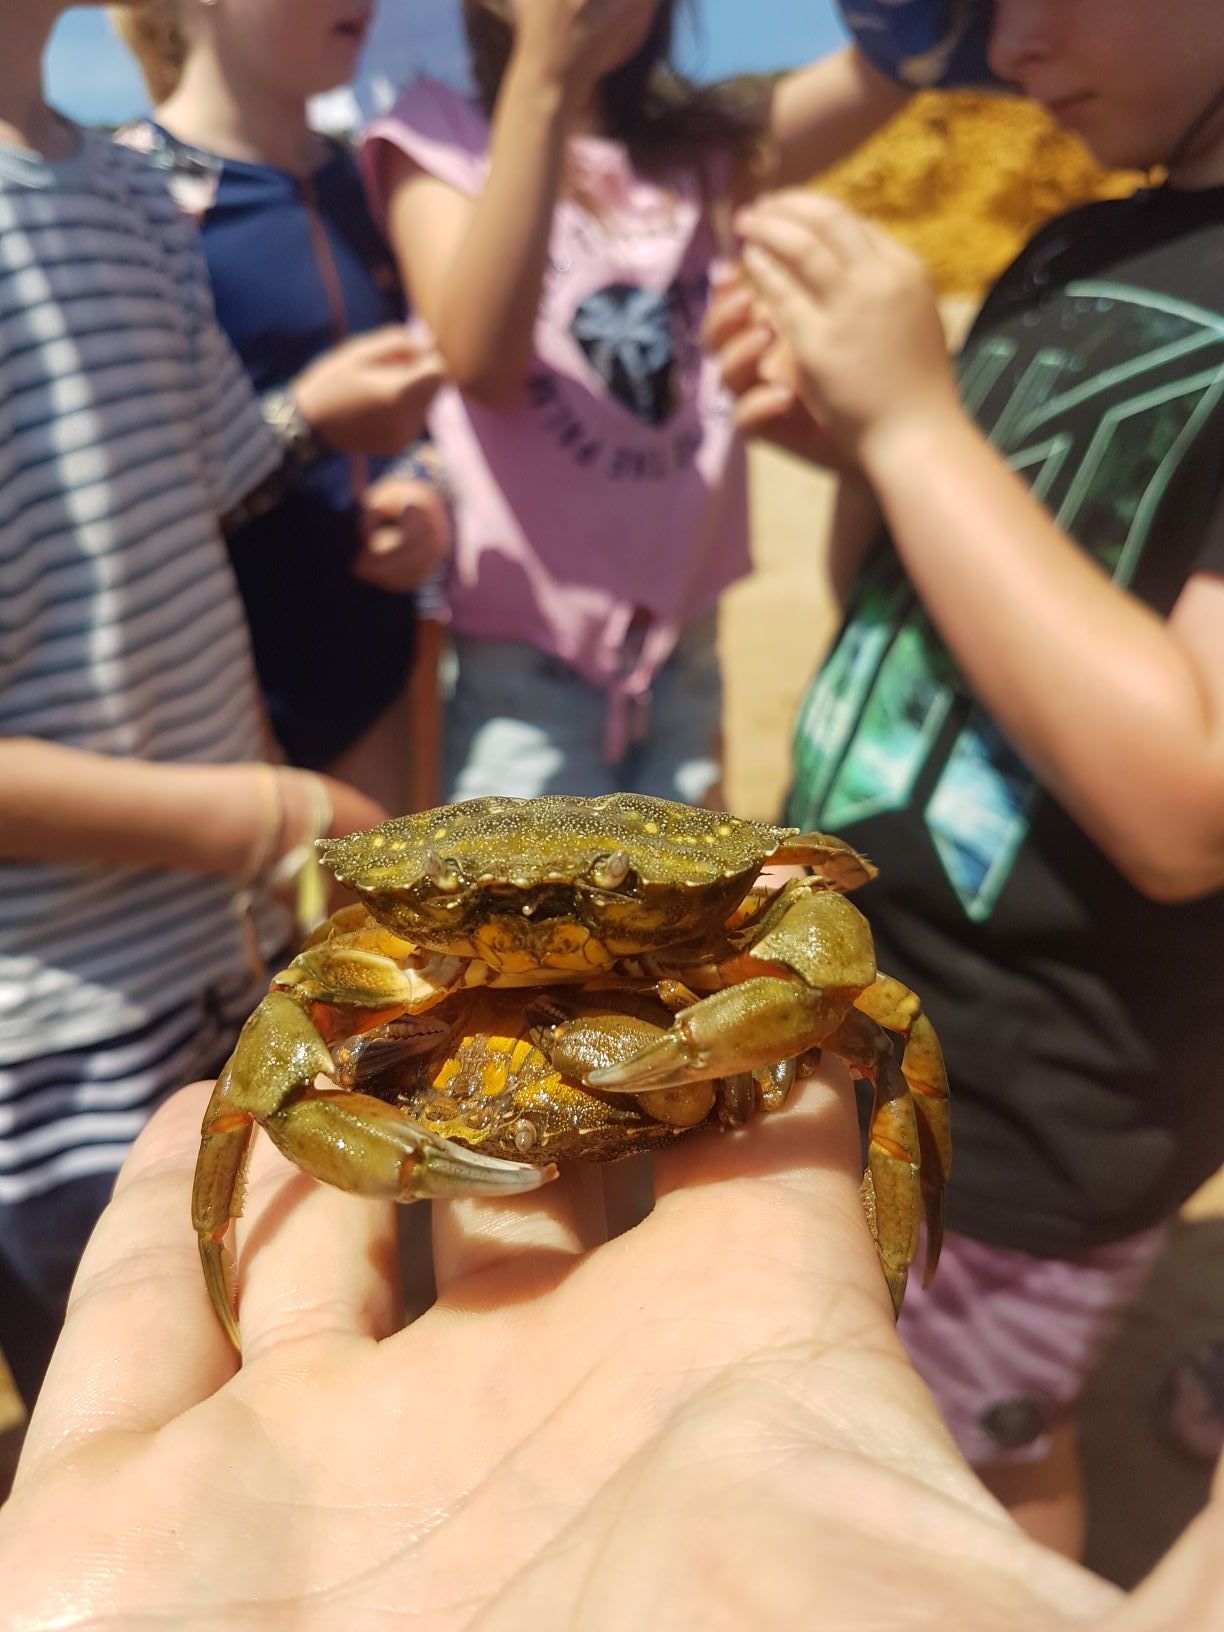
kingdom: Animalia
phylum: Arthropoda
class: Malacostraca
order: Decapoda
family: Carcinidae
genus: Carcinus
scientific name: Carcinus maenas
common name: European green crab
